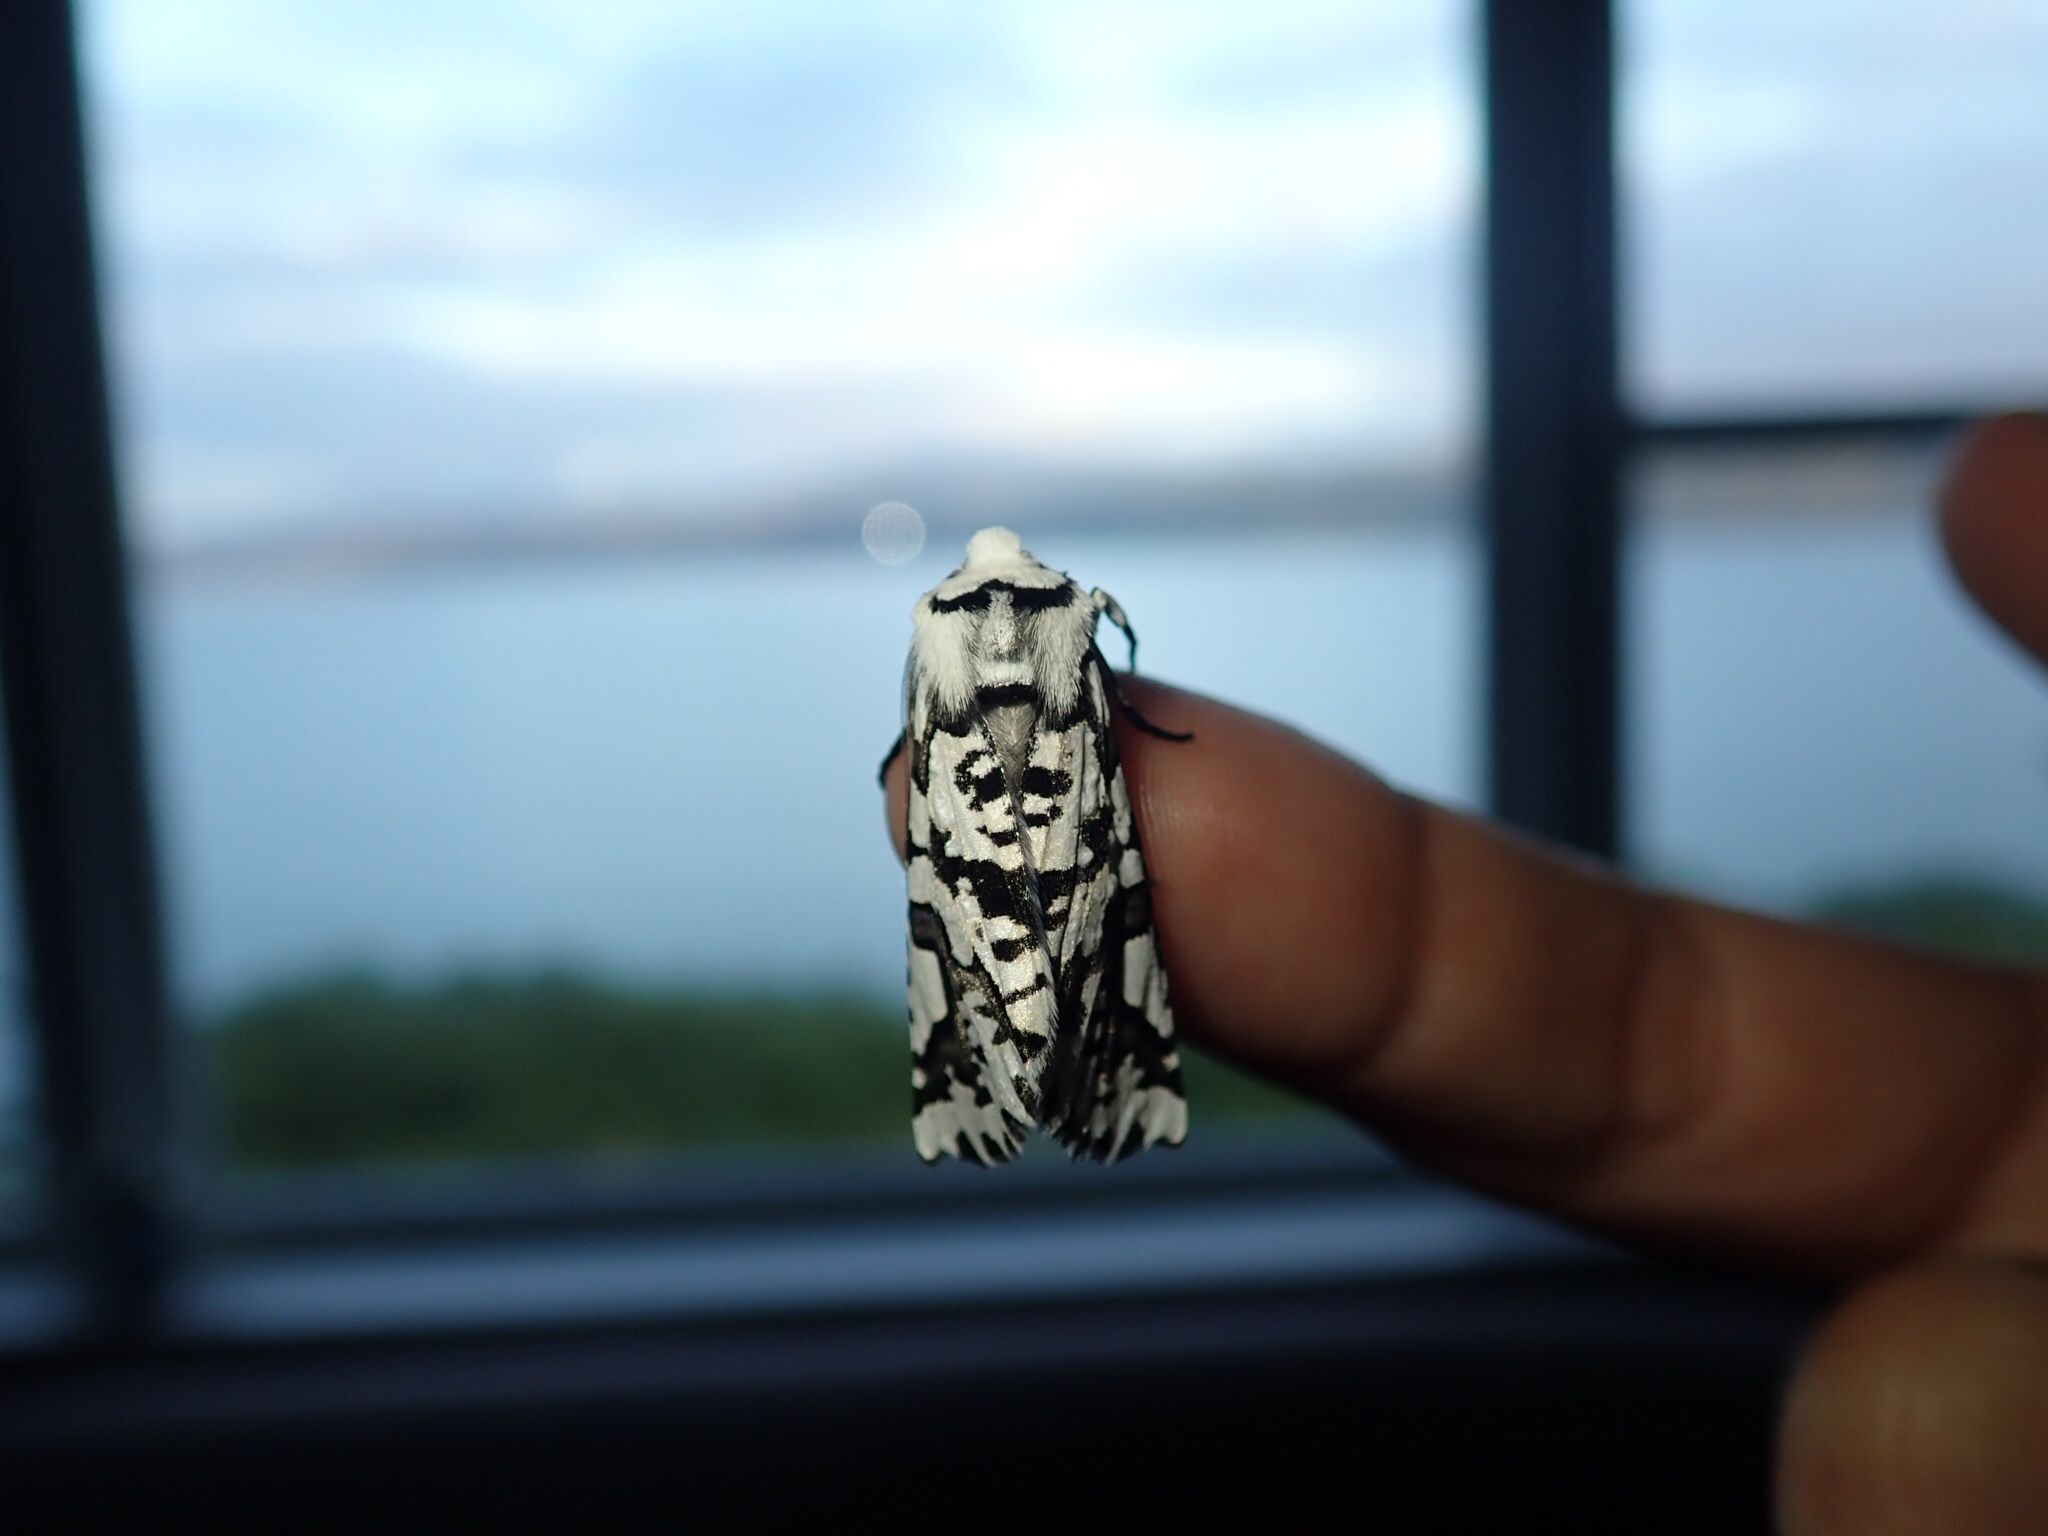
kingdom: Animalia
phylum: Arthropoda
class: Insecta
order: Lepidoptera
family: Geometridae
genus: Declana
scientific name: Declana
